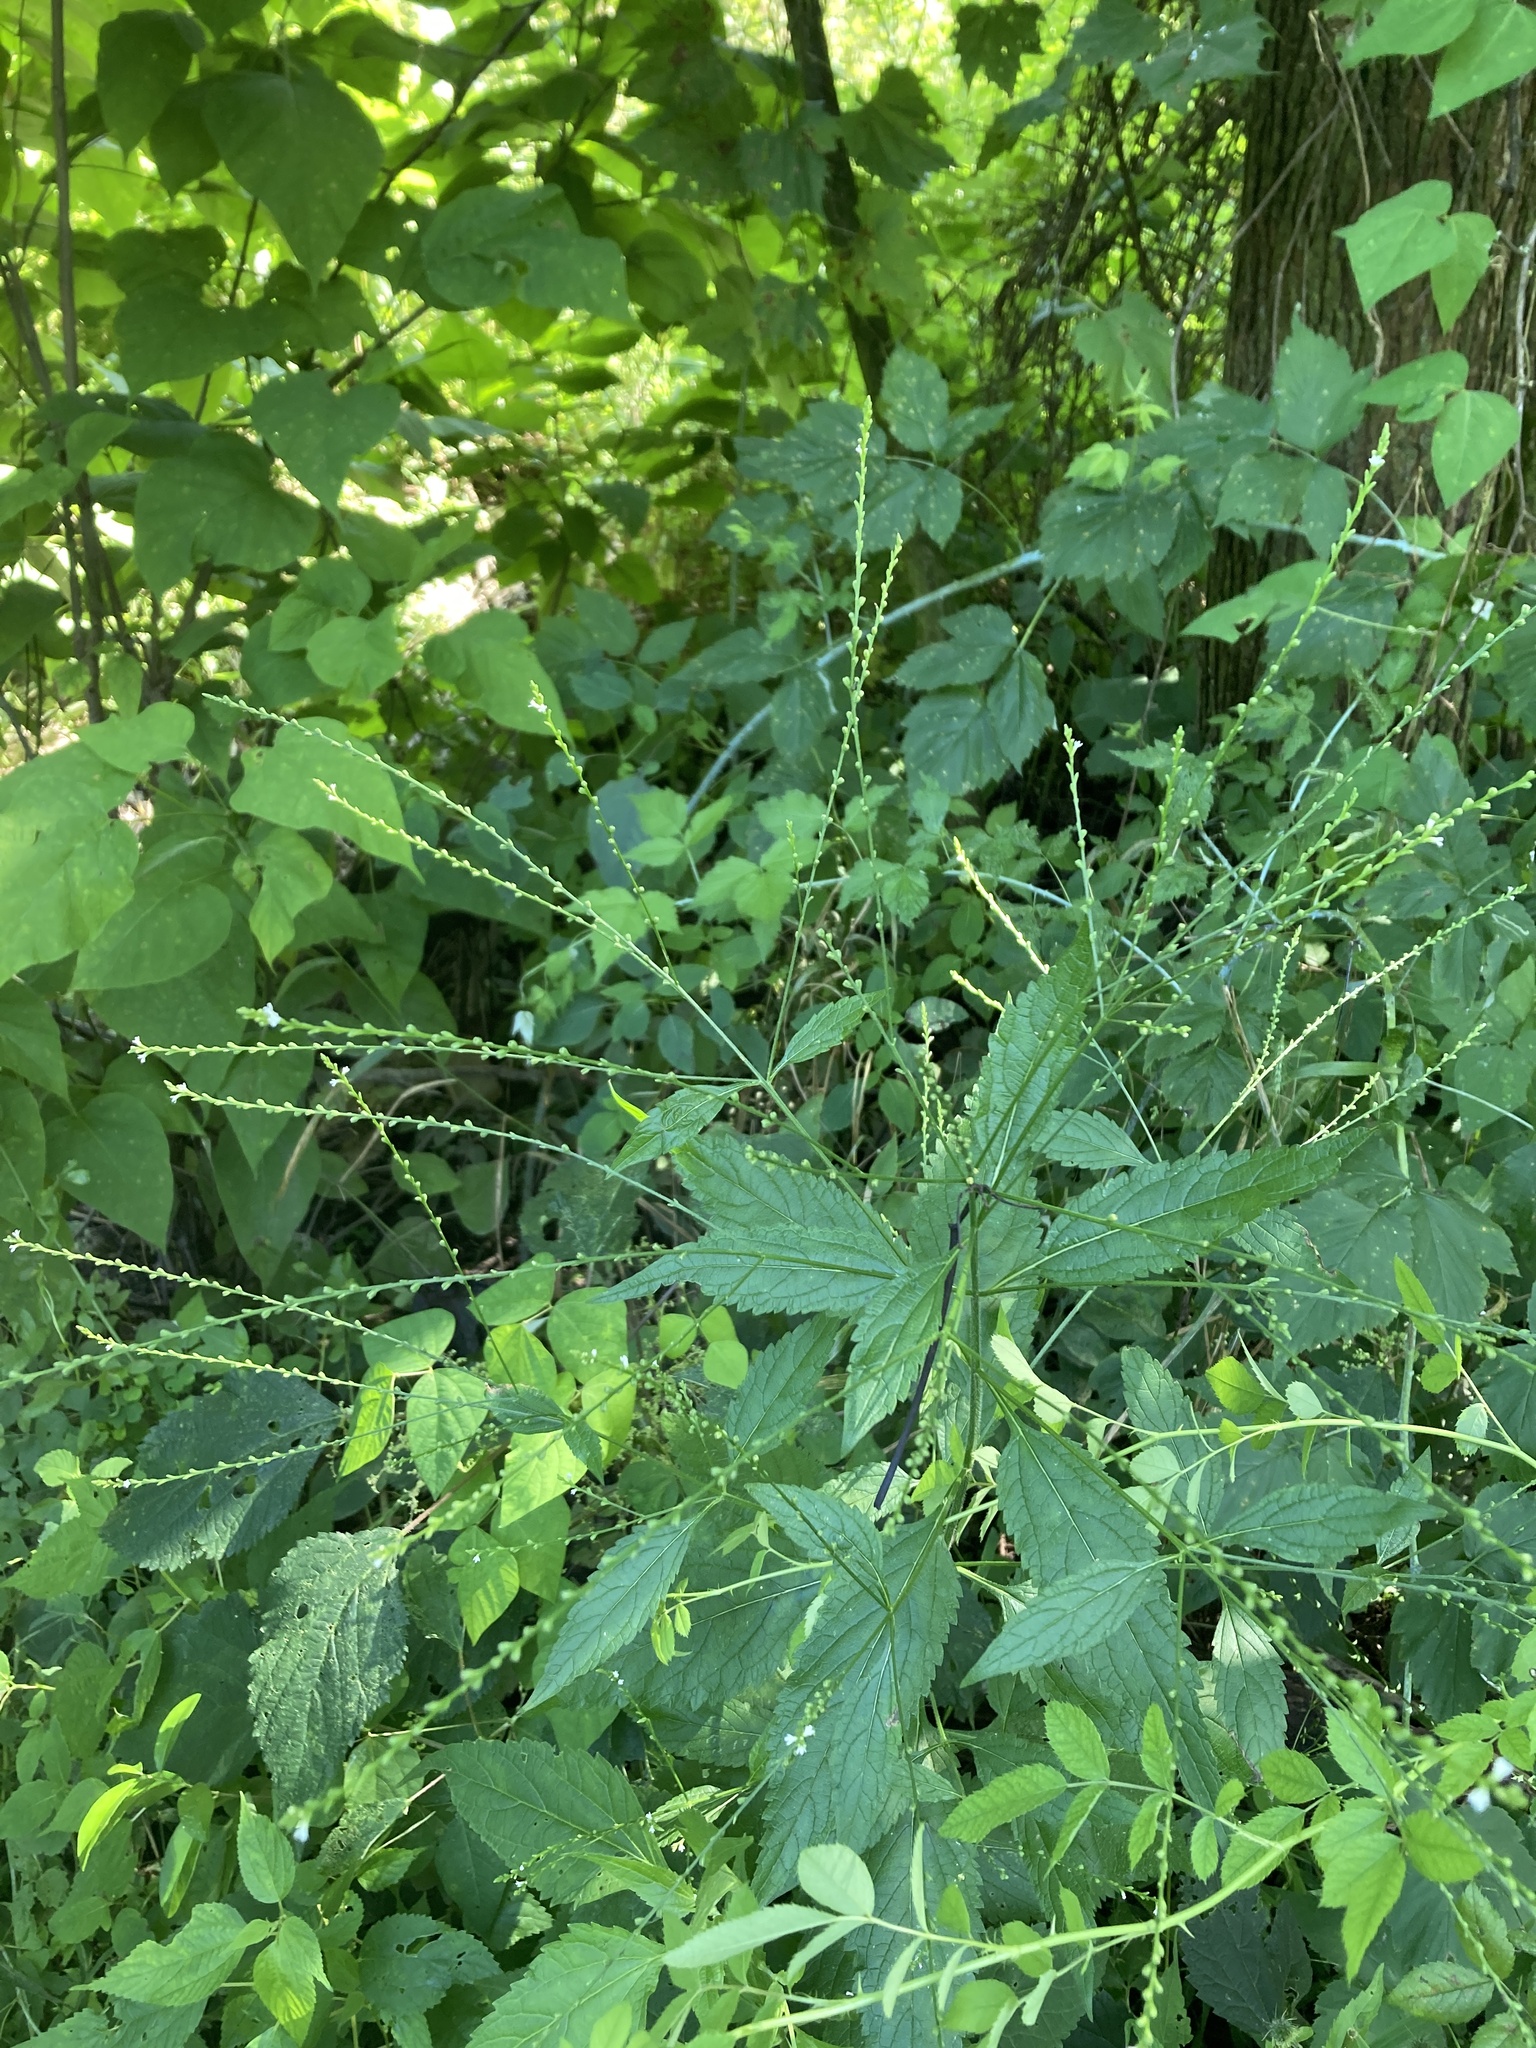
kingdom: Plantae
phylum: Tracheophyta
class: Magnoliopsida
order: Lamiales
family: Verbenaceae
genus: Verbena
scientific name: Verbena urticifolia
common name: Nettle-leaved vervain
